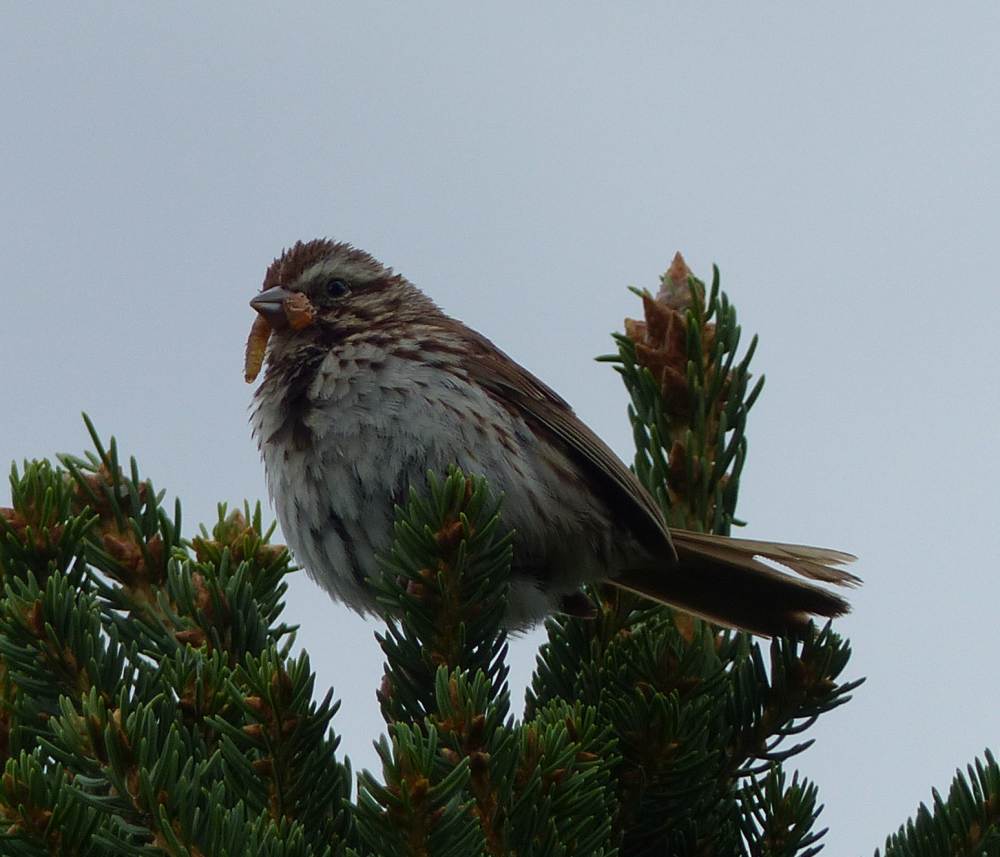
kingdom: Animalia
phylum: Chordata
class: Aves
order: Passeriformes
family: Passerellidae
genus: Melospiza
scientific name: Melospiza melodia
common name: Song sparrow
